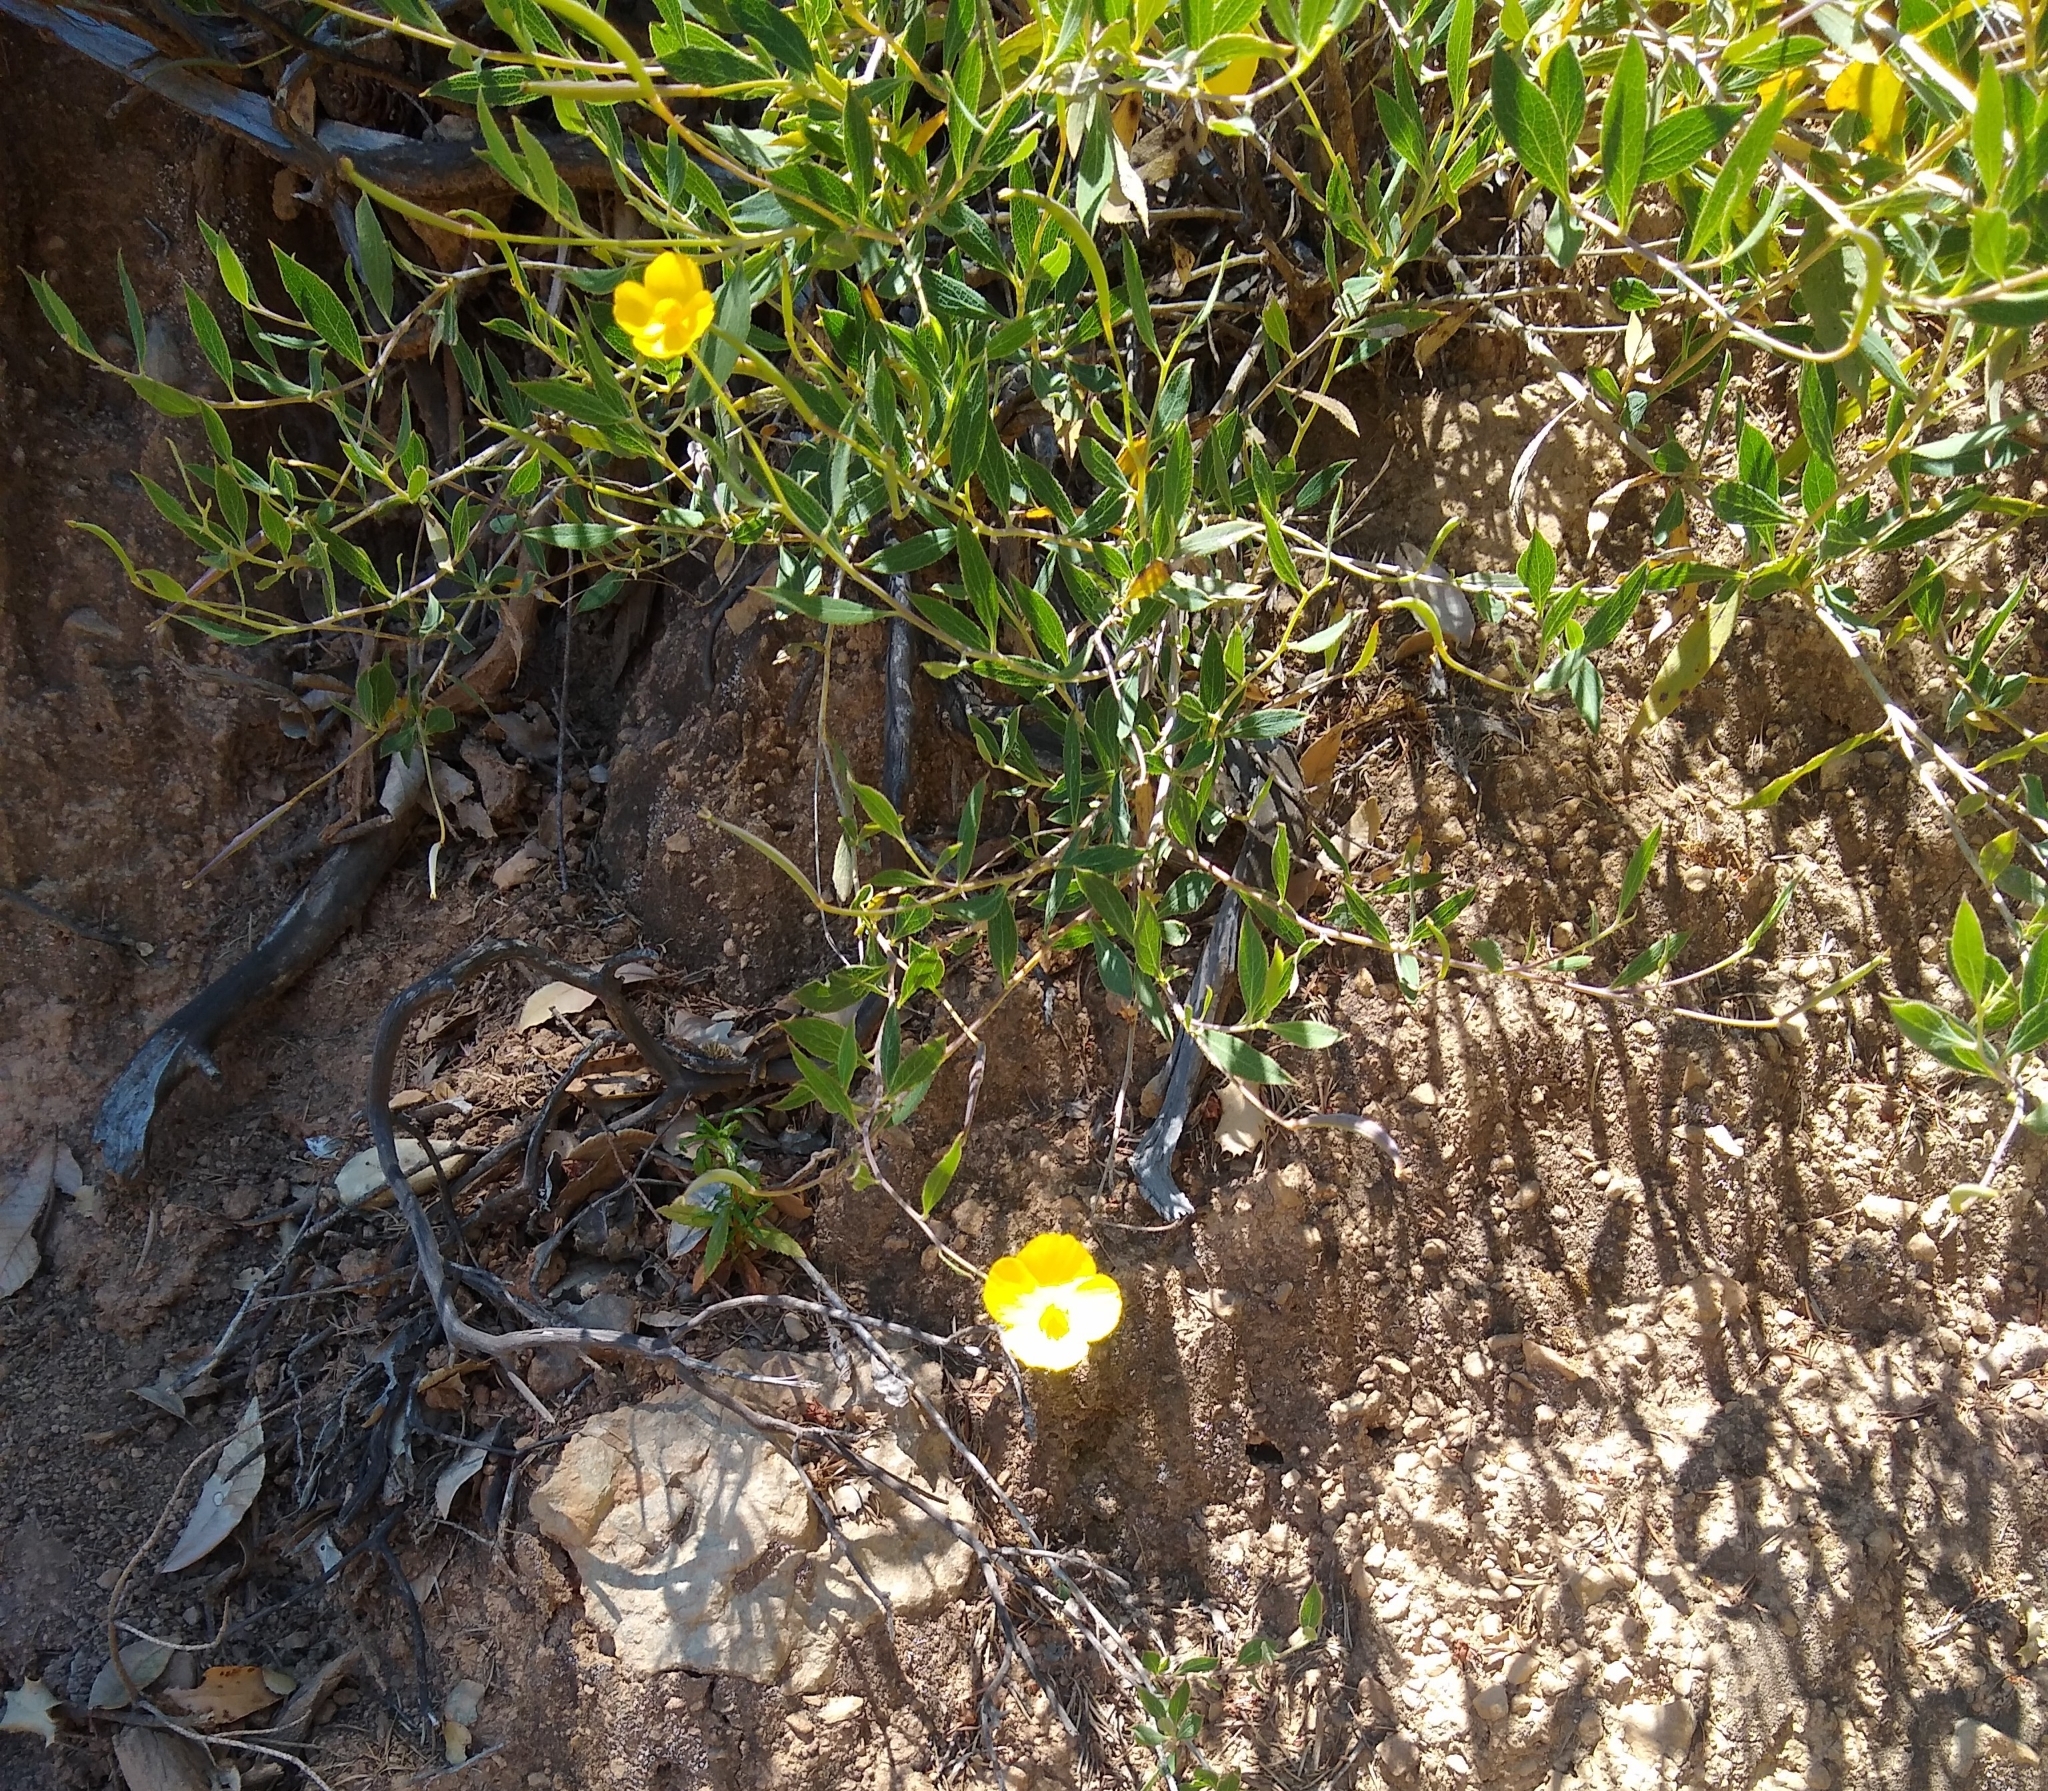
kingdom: Plantae
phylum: Tracheophyta
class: Magnoliopsida
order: Ranunculales
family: Papaveraceae
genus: Dendromecon
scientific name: Dendromecon rigida
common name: Tree poppy
